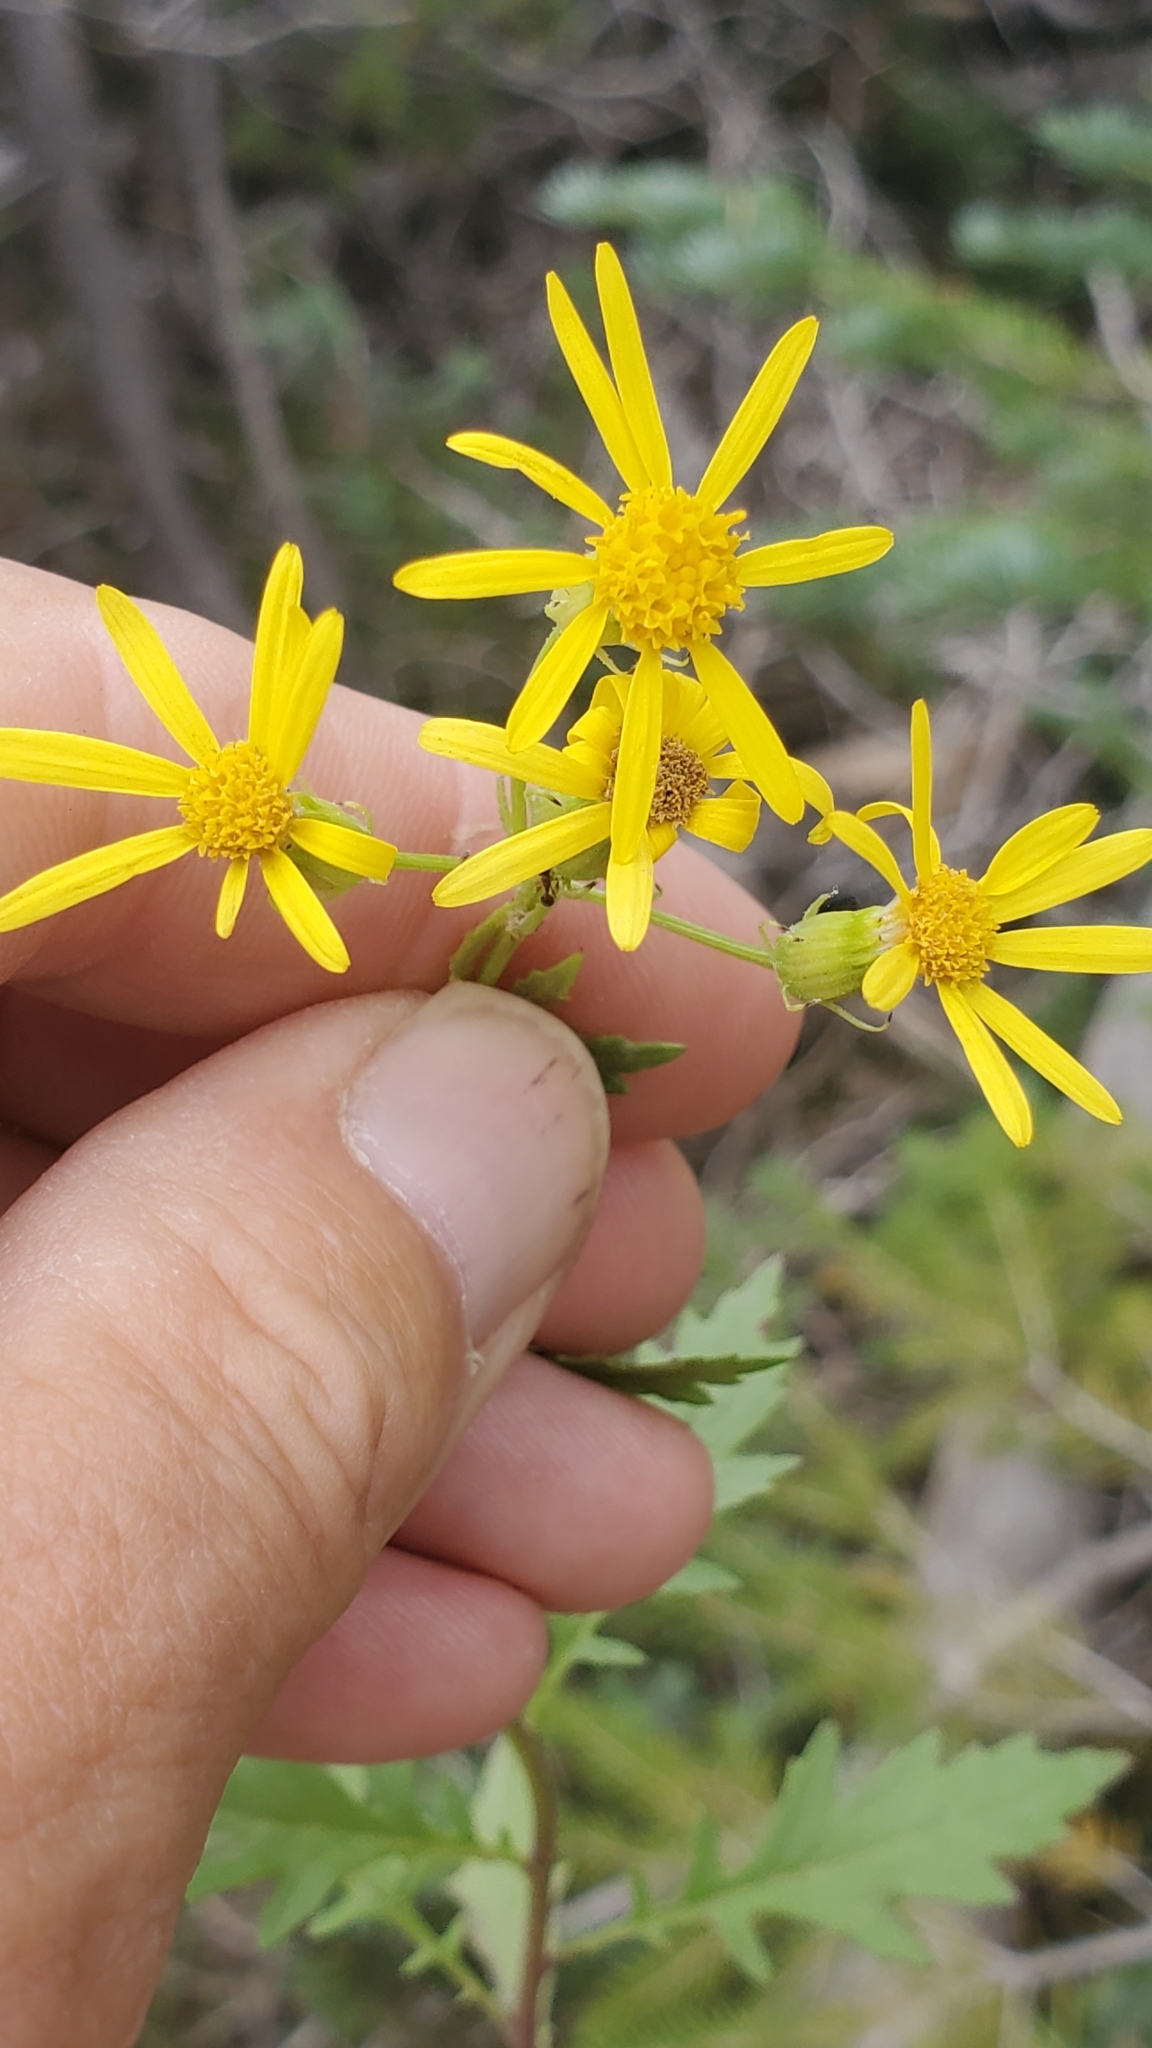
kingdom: Plantae
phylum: Tracheophyta
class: Magnoliopsida
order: Asterales
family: Asteraceae
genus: Senecio
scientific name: Senecio eremophilus
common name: Desert ragwort
